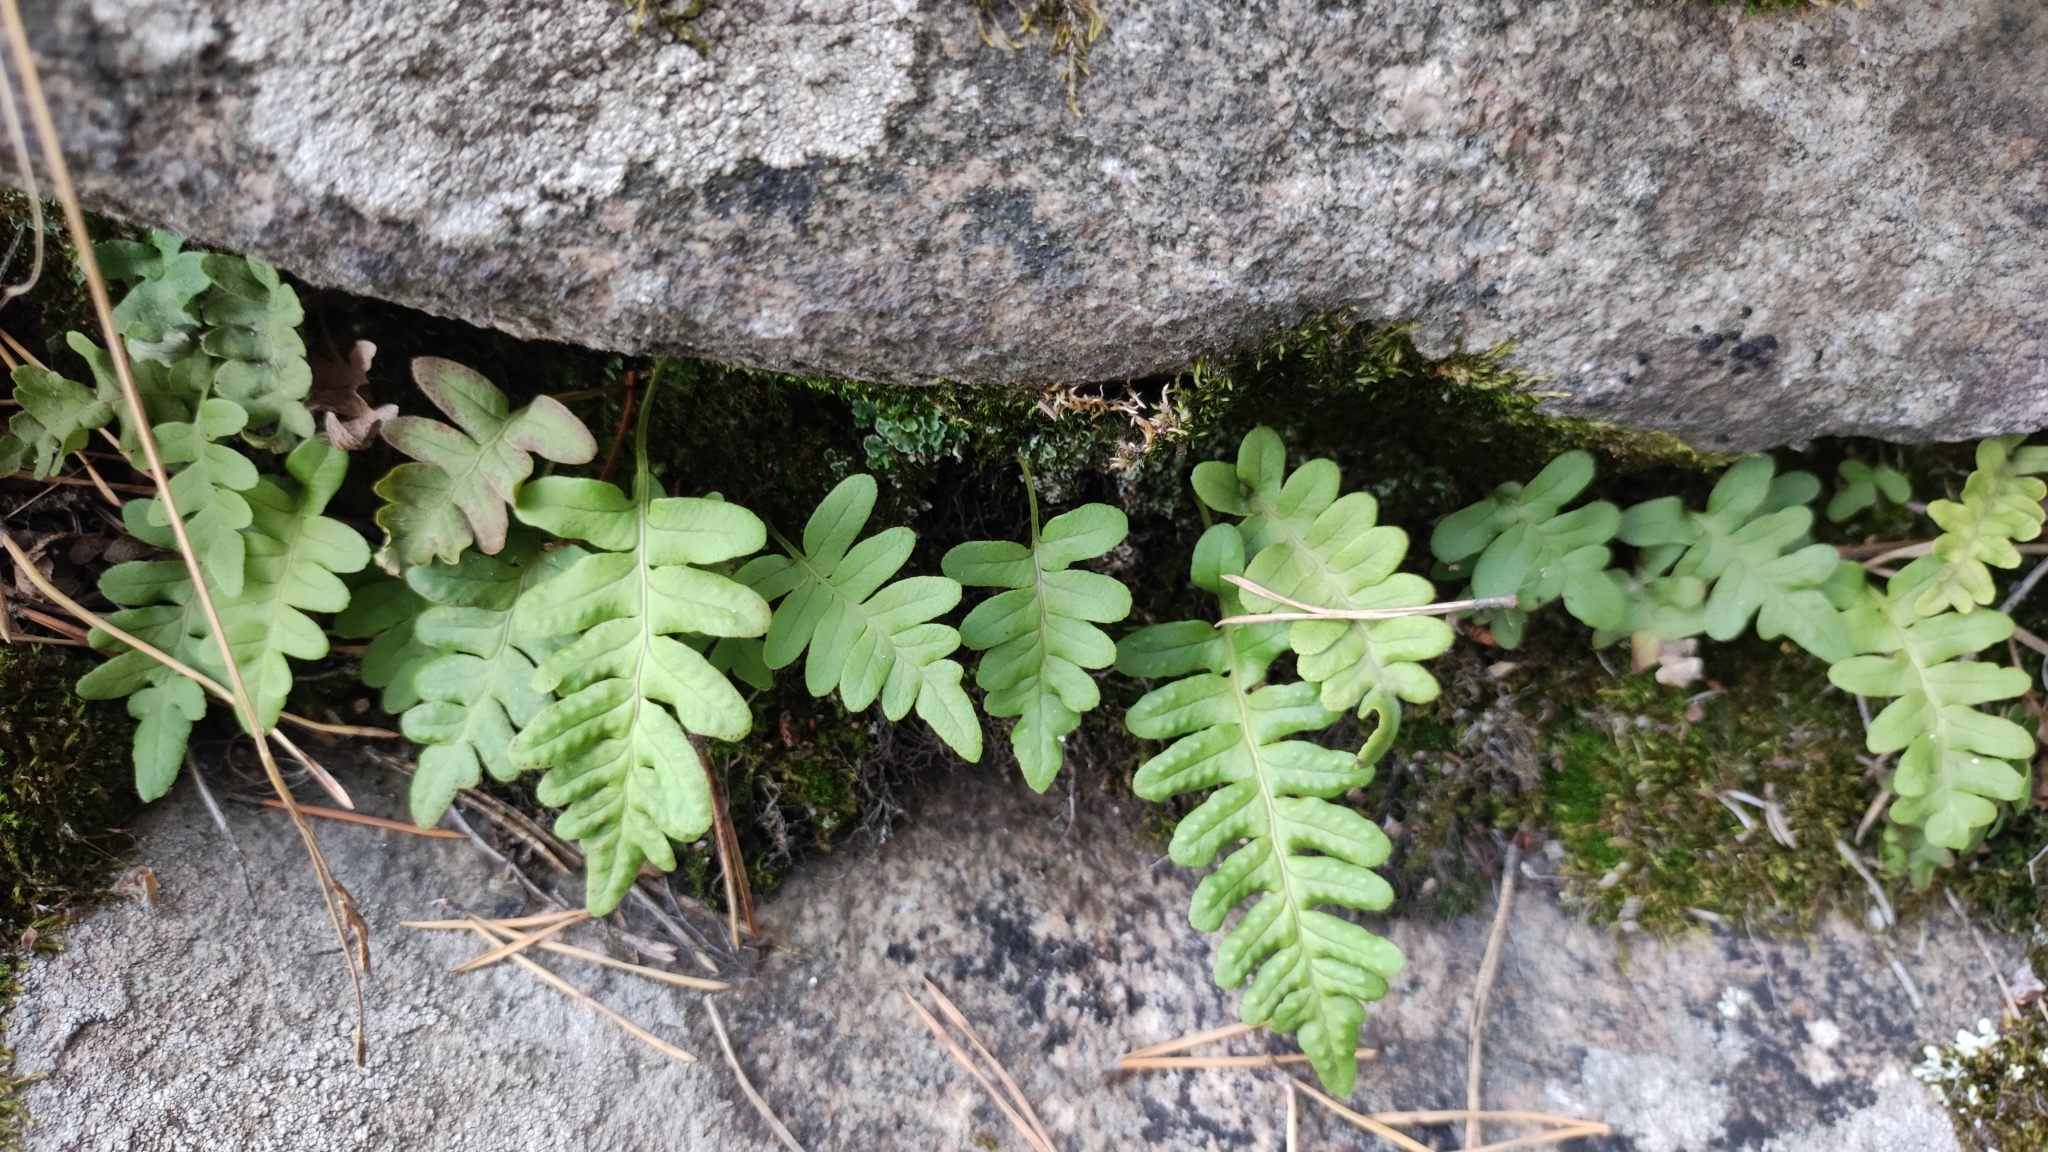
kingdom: Plantae
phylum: Tracheophyta
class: Polypodiopsida
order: Polypodiales
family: Polypodiaceae
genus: Polypodium
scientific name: Polypodium vulgare
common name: Common polypody
